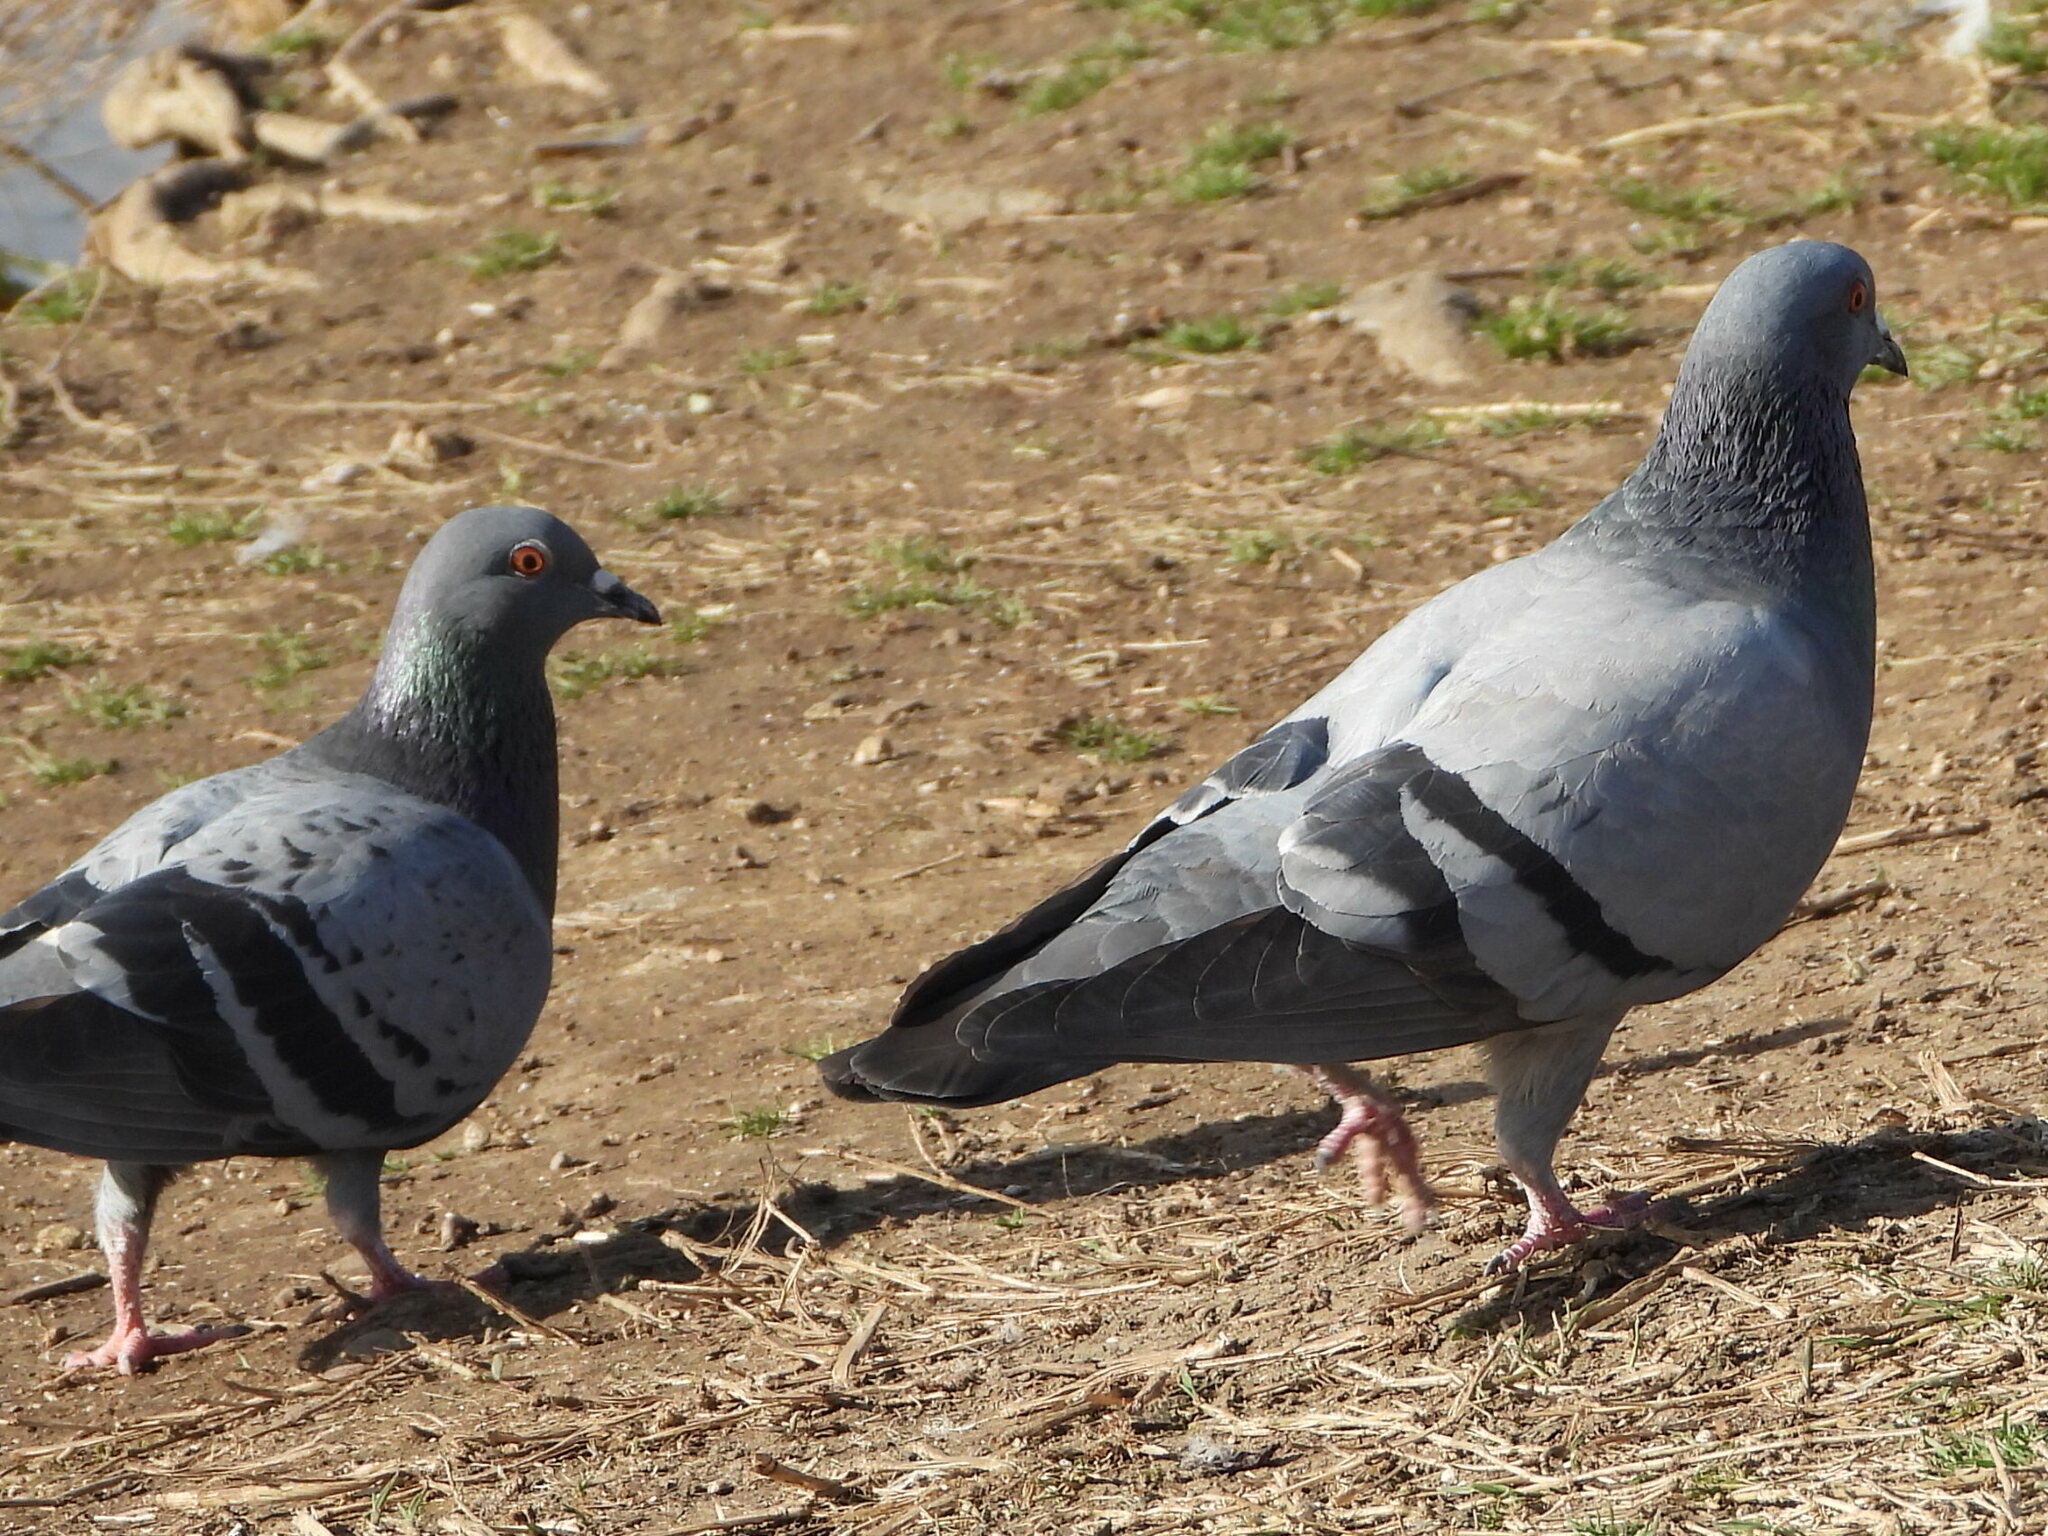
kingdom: Animalia
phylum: Chordata
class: Aves
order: Columbiformes
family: Columbidae
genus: Columba
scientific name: Columba livia
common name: Rock pigeon
